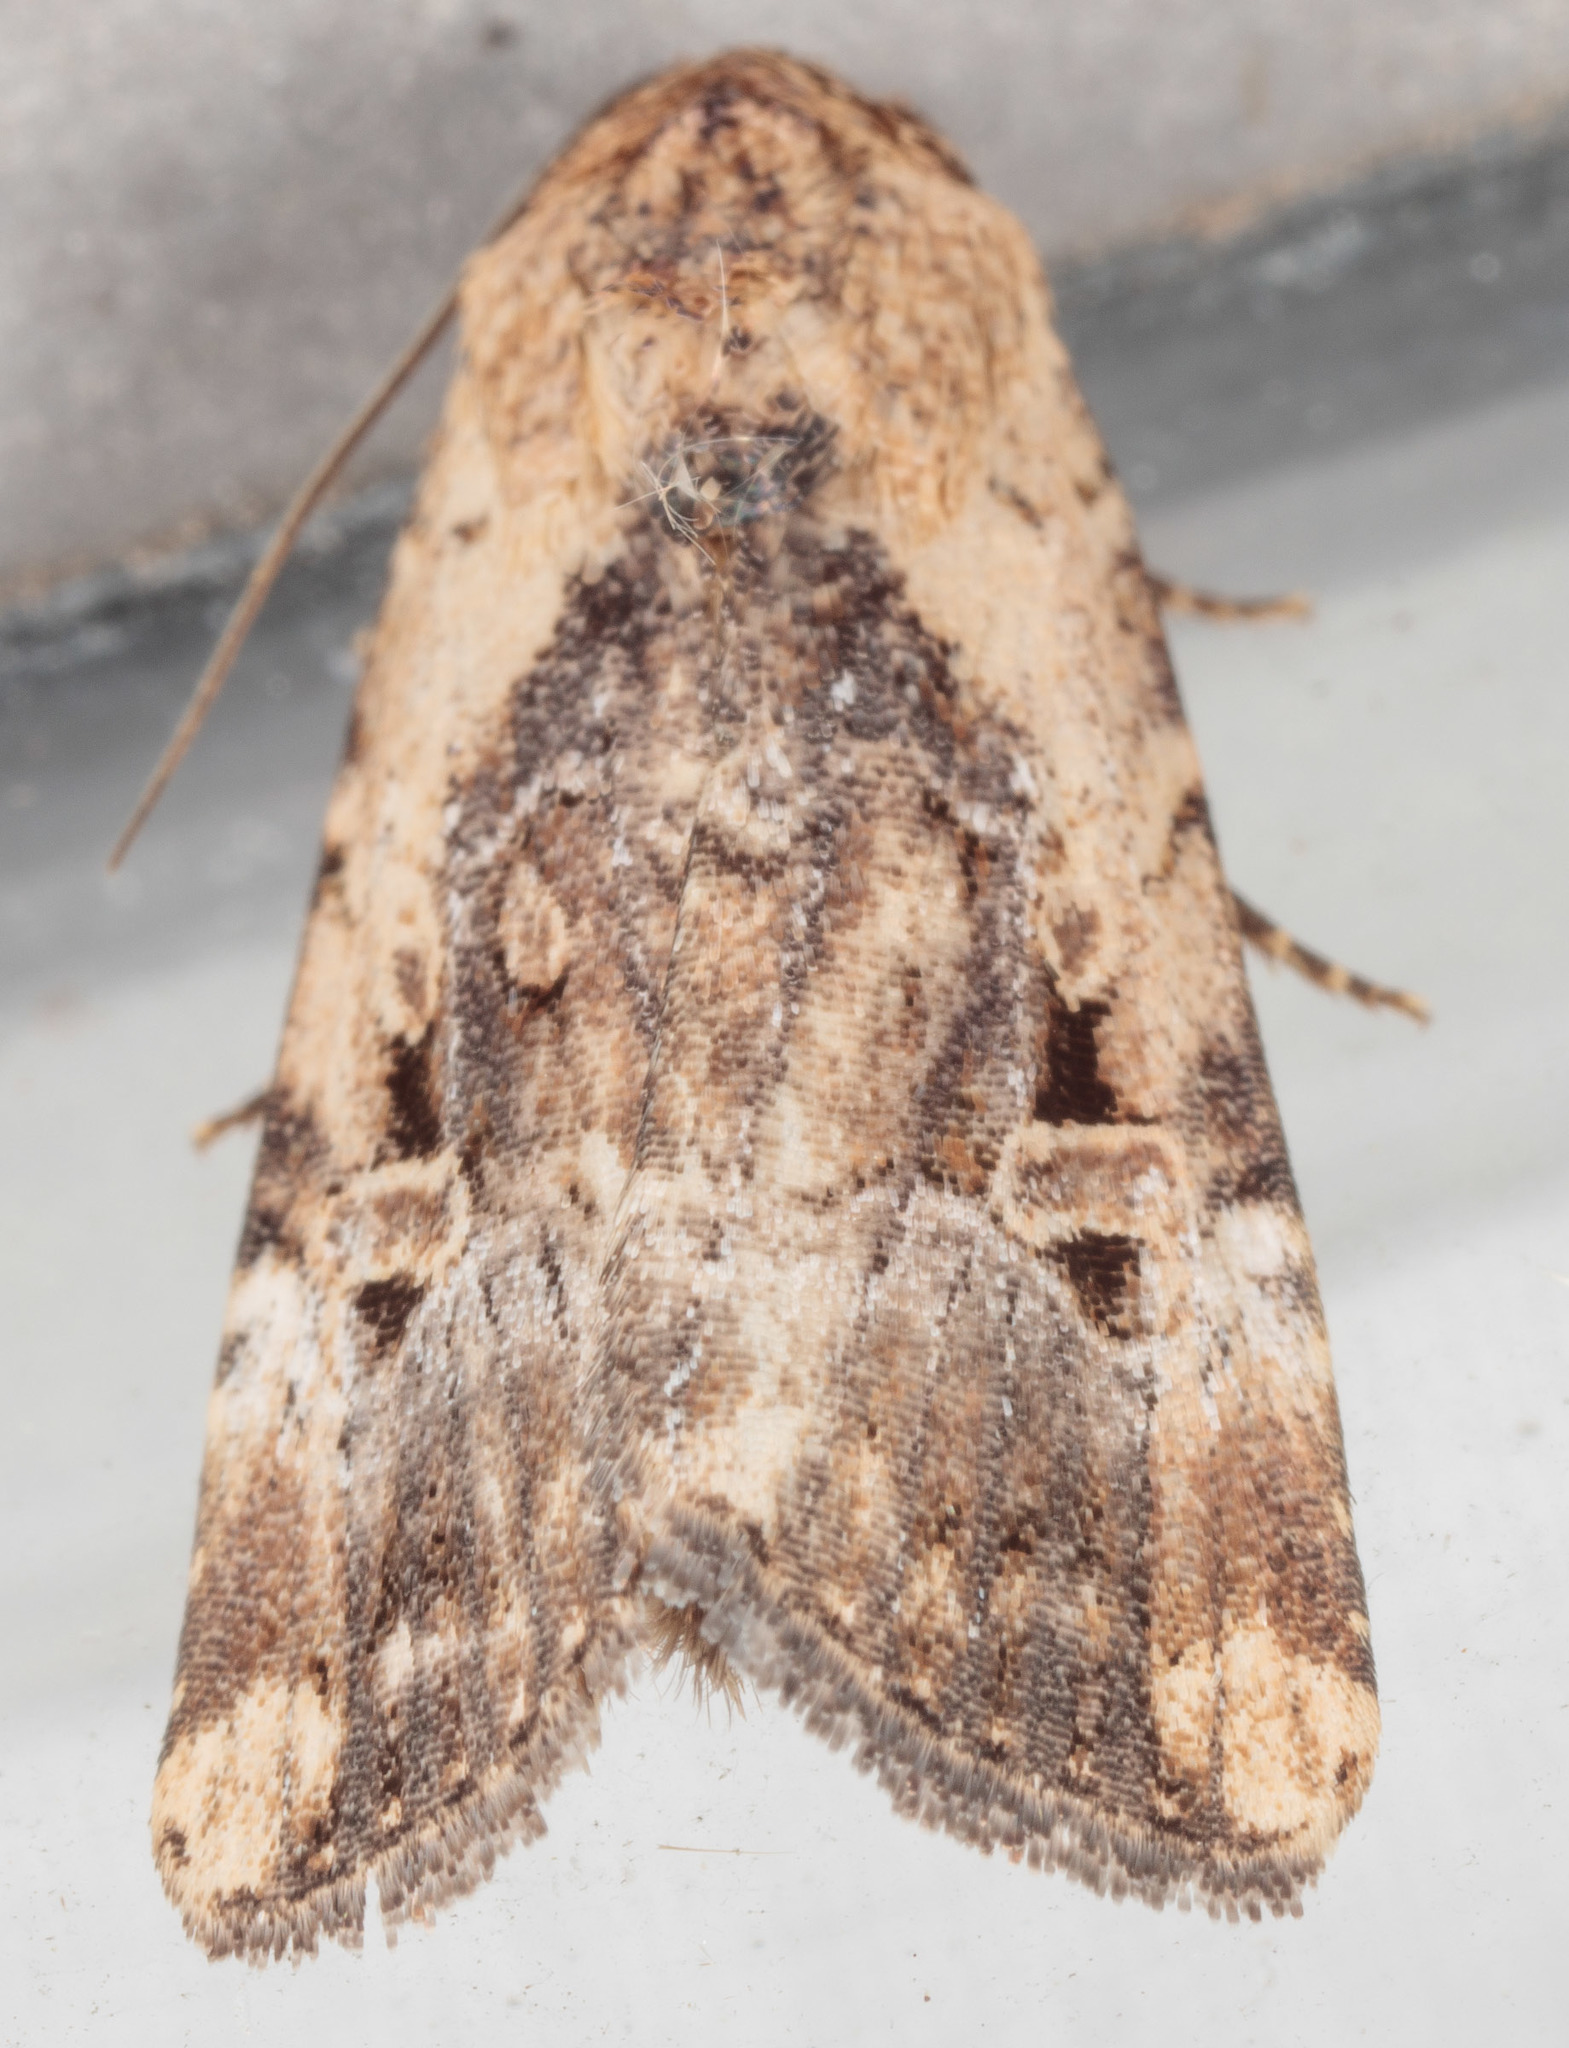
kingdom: Animalia
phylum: Arthropoda
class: Insecta
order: Lepidoptera
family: Noctuidae
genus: Elaphria
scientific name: Elaphria chalcedonia
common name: Chalcedony midget
